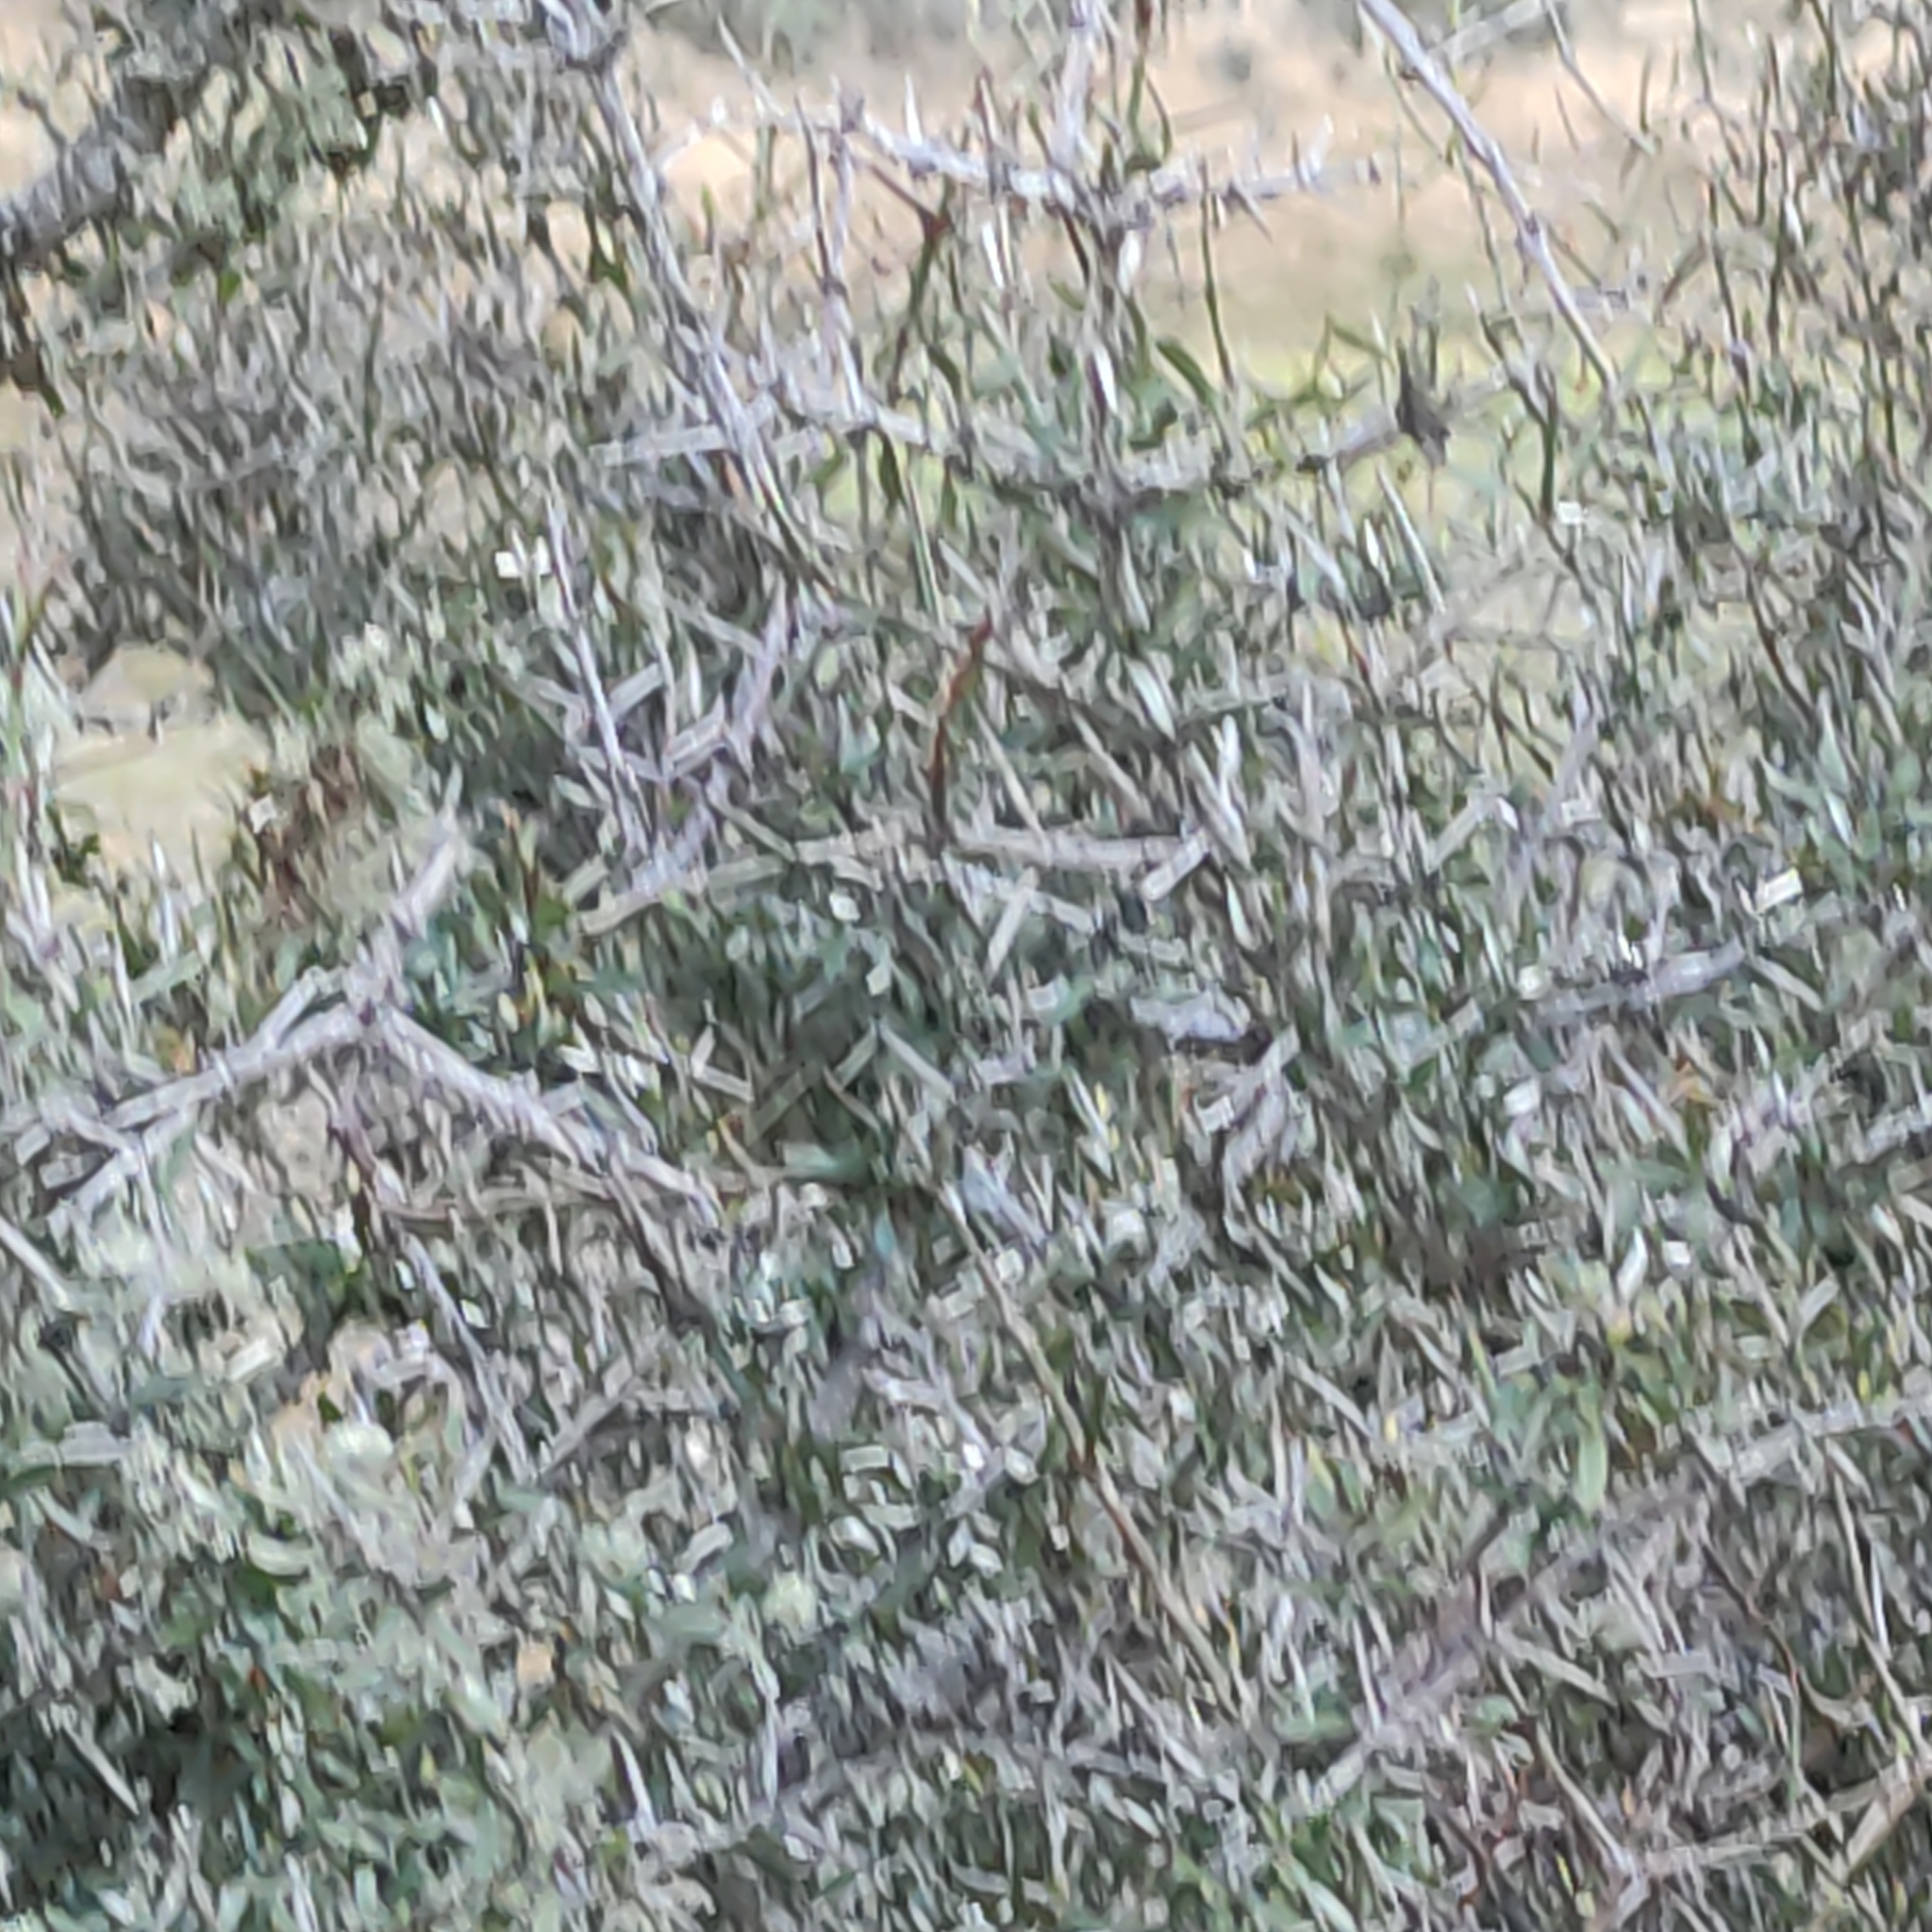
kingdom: Plantae
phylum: Tracheophyta
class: Magnoliopsida
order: Rosales
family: Rhamnaceae
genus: Discaria
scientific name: Discaria toumatou
